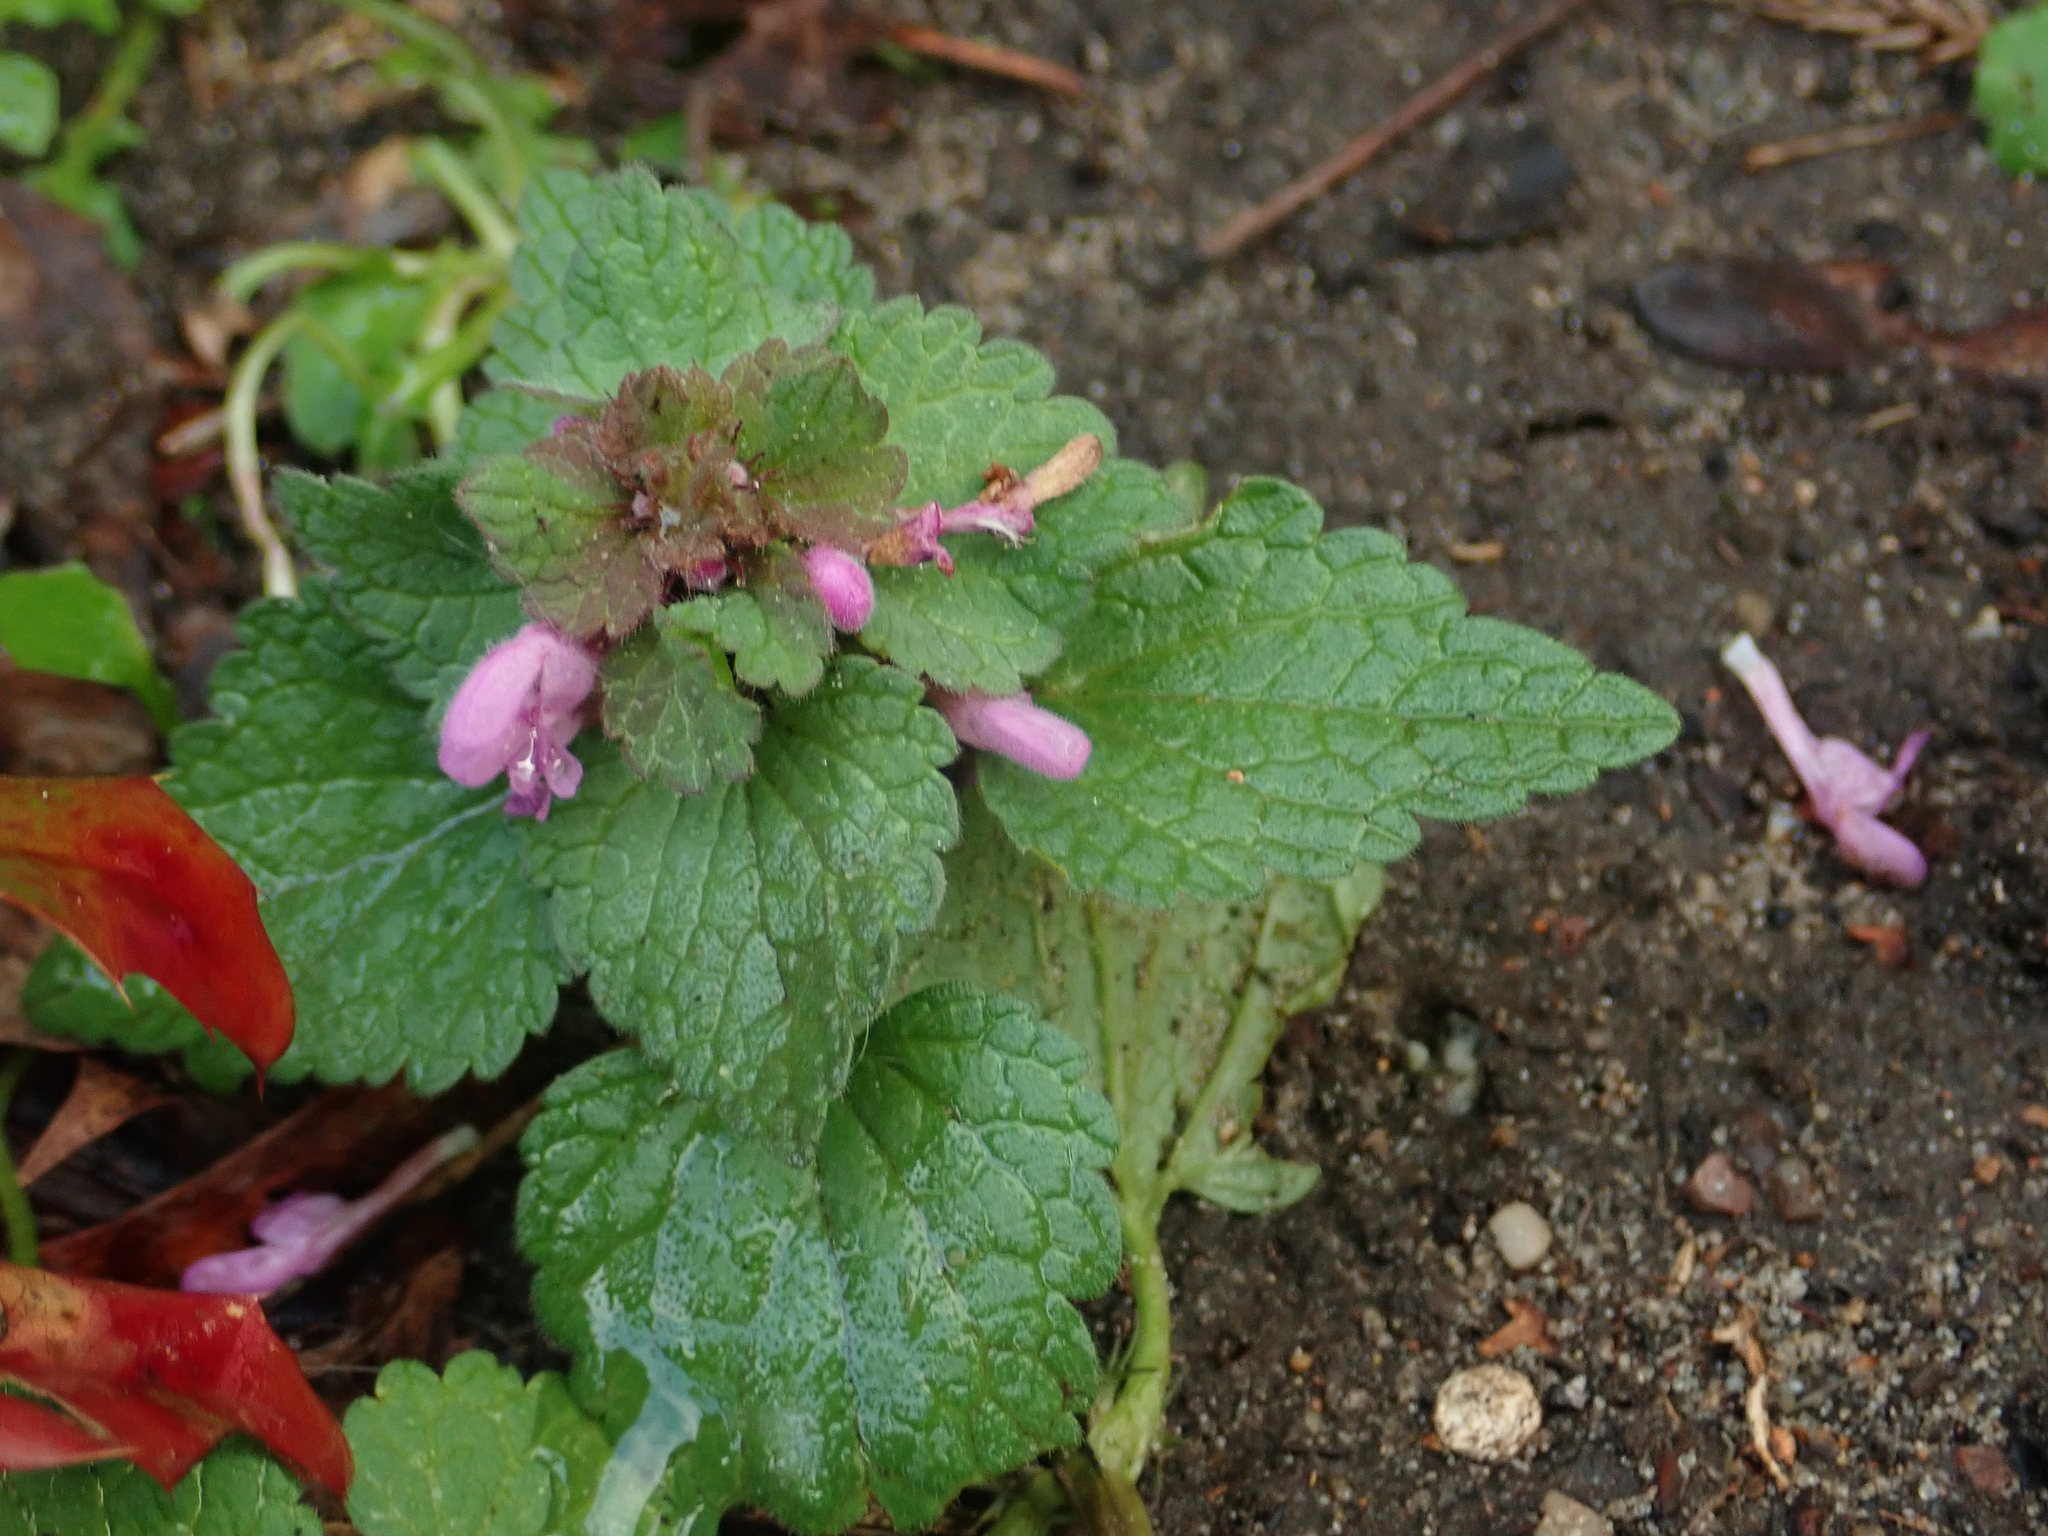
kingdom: Plantae
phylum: Tracheophyta
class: Magnoliopsida
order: Lamiales
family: Lamiaceae
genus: Lamium
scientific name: Lamium purpureum
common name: Red dead-nettle
